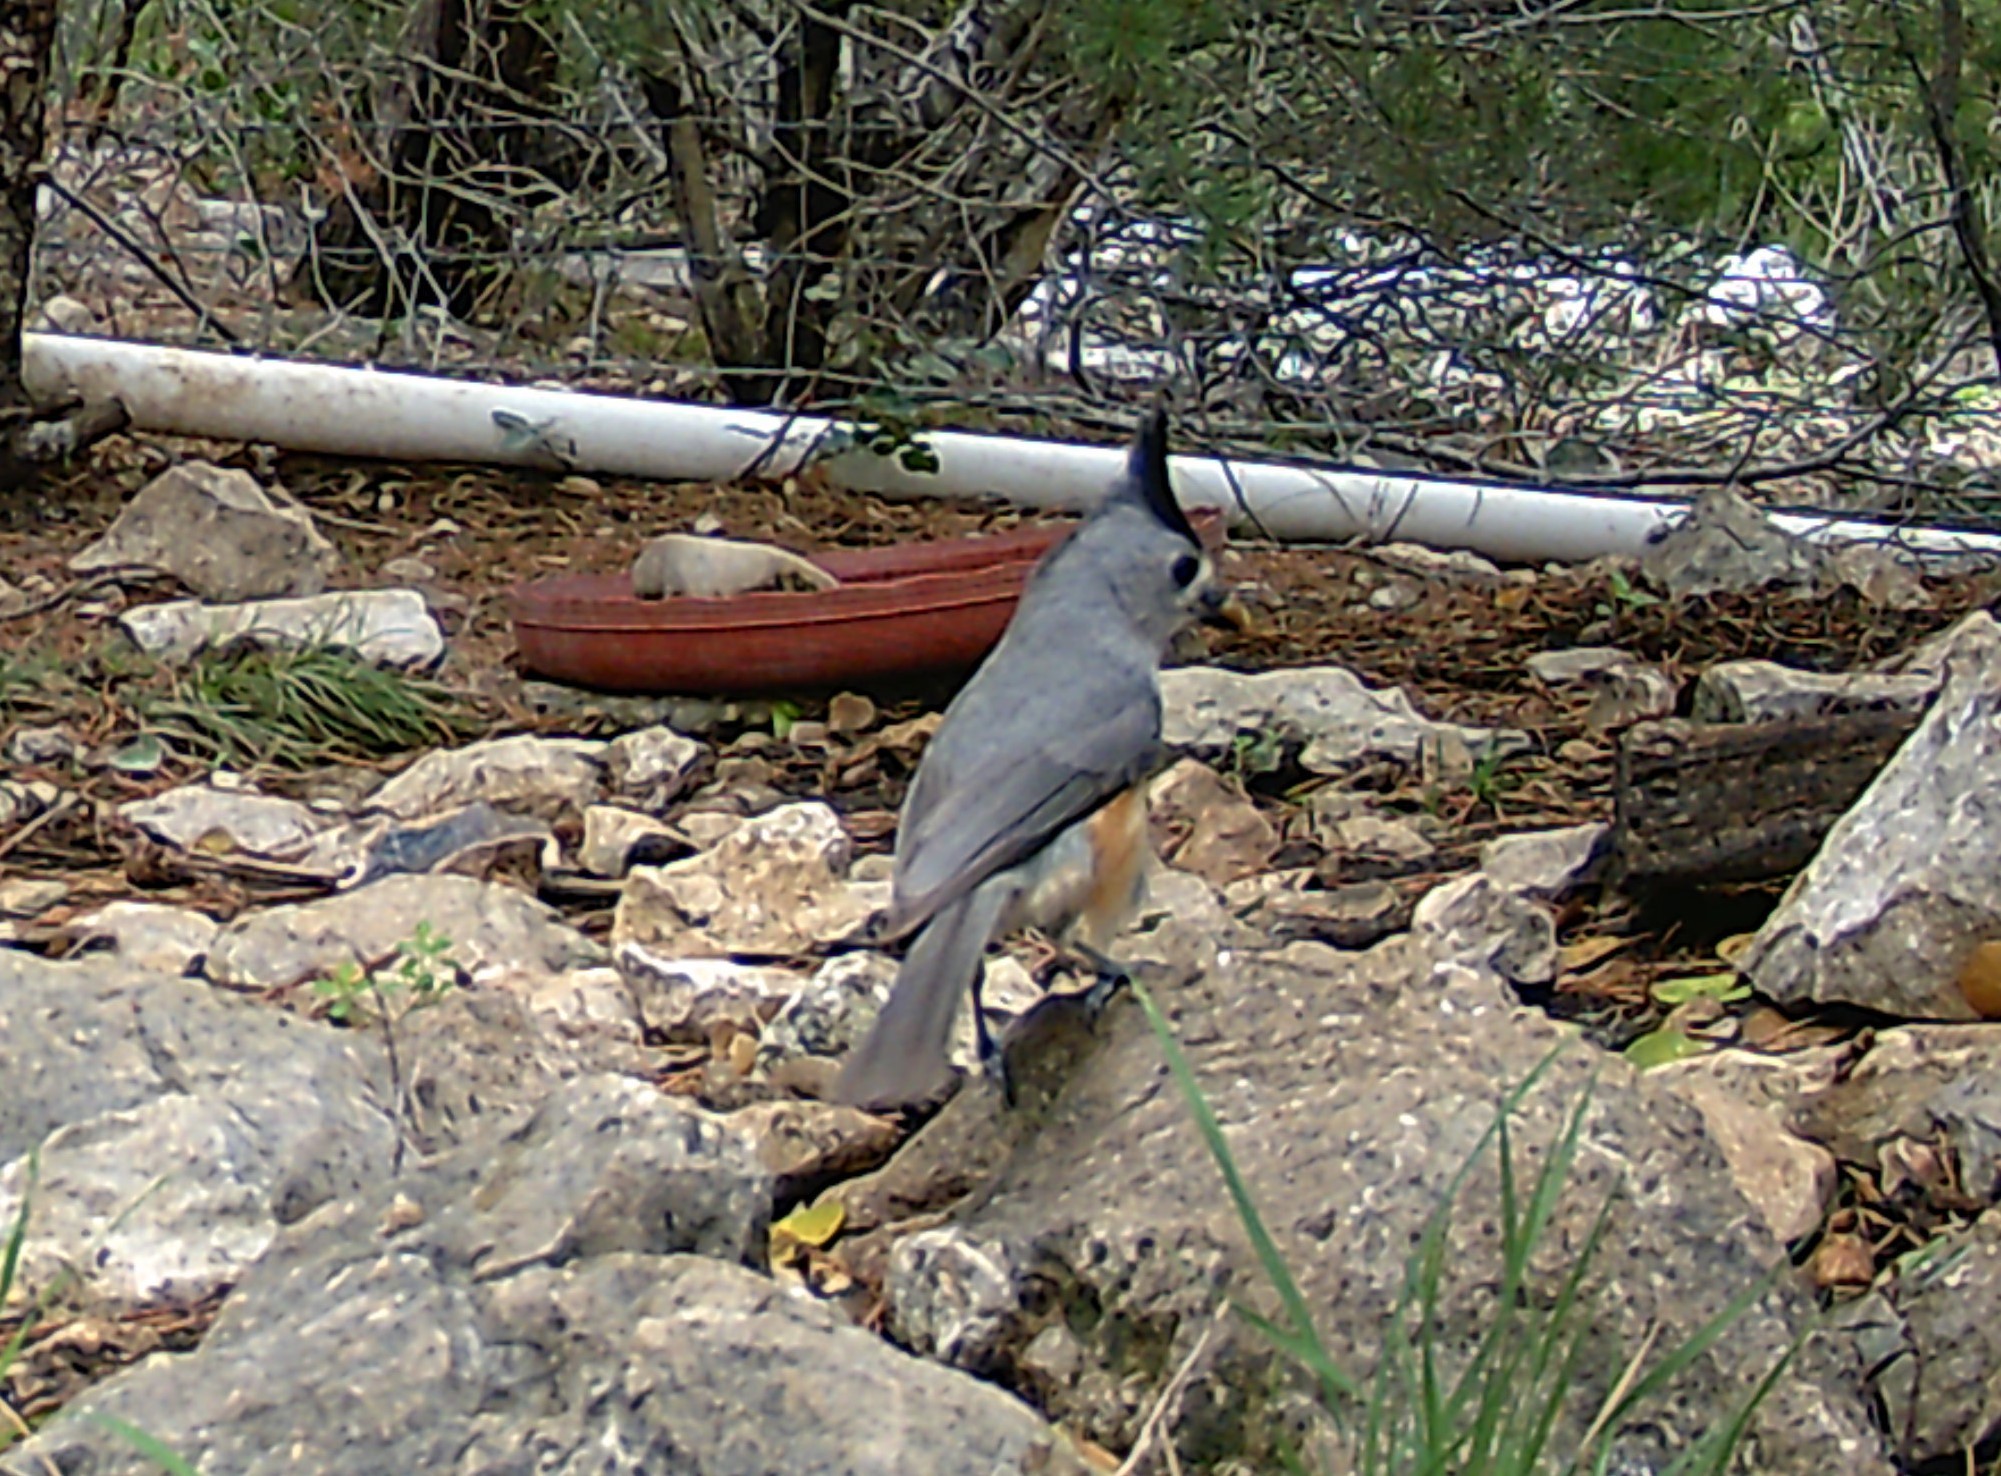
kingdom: Animalia
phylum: Chordata
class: Aves
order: Passeriformes
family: Paridae
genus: Baeolophus
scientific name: Baeolophus atricristatus
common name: Black-crested titmouse
